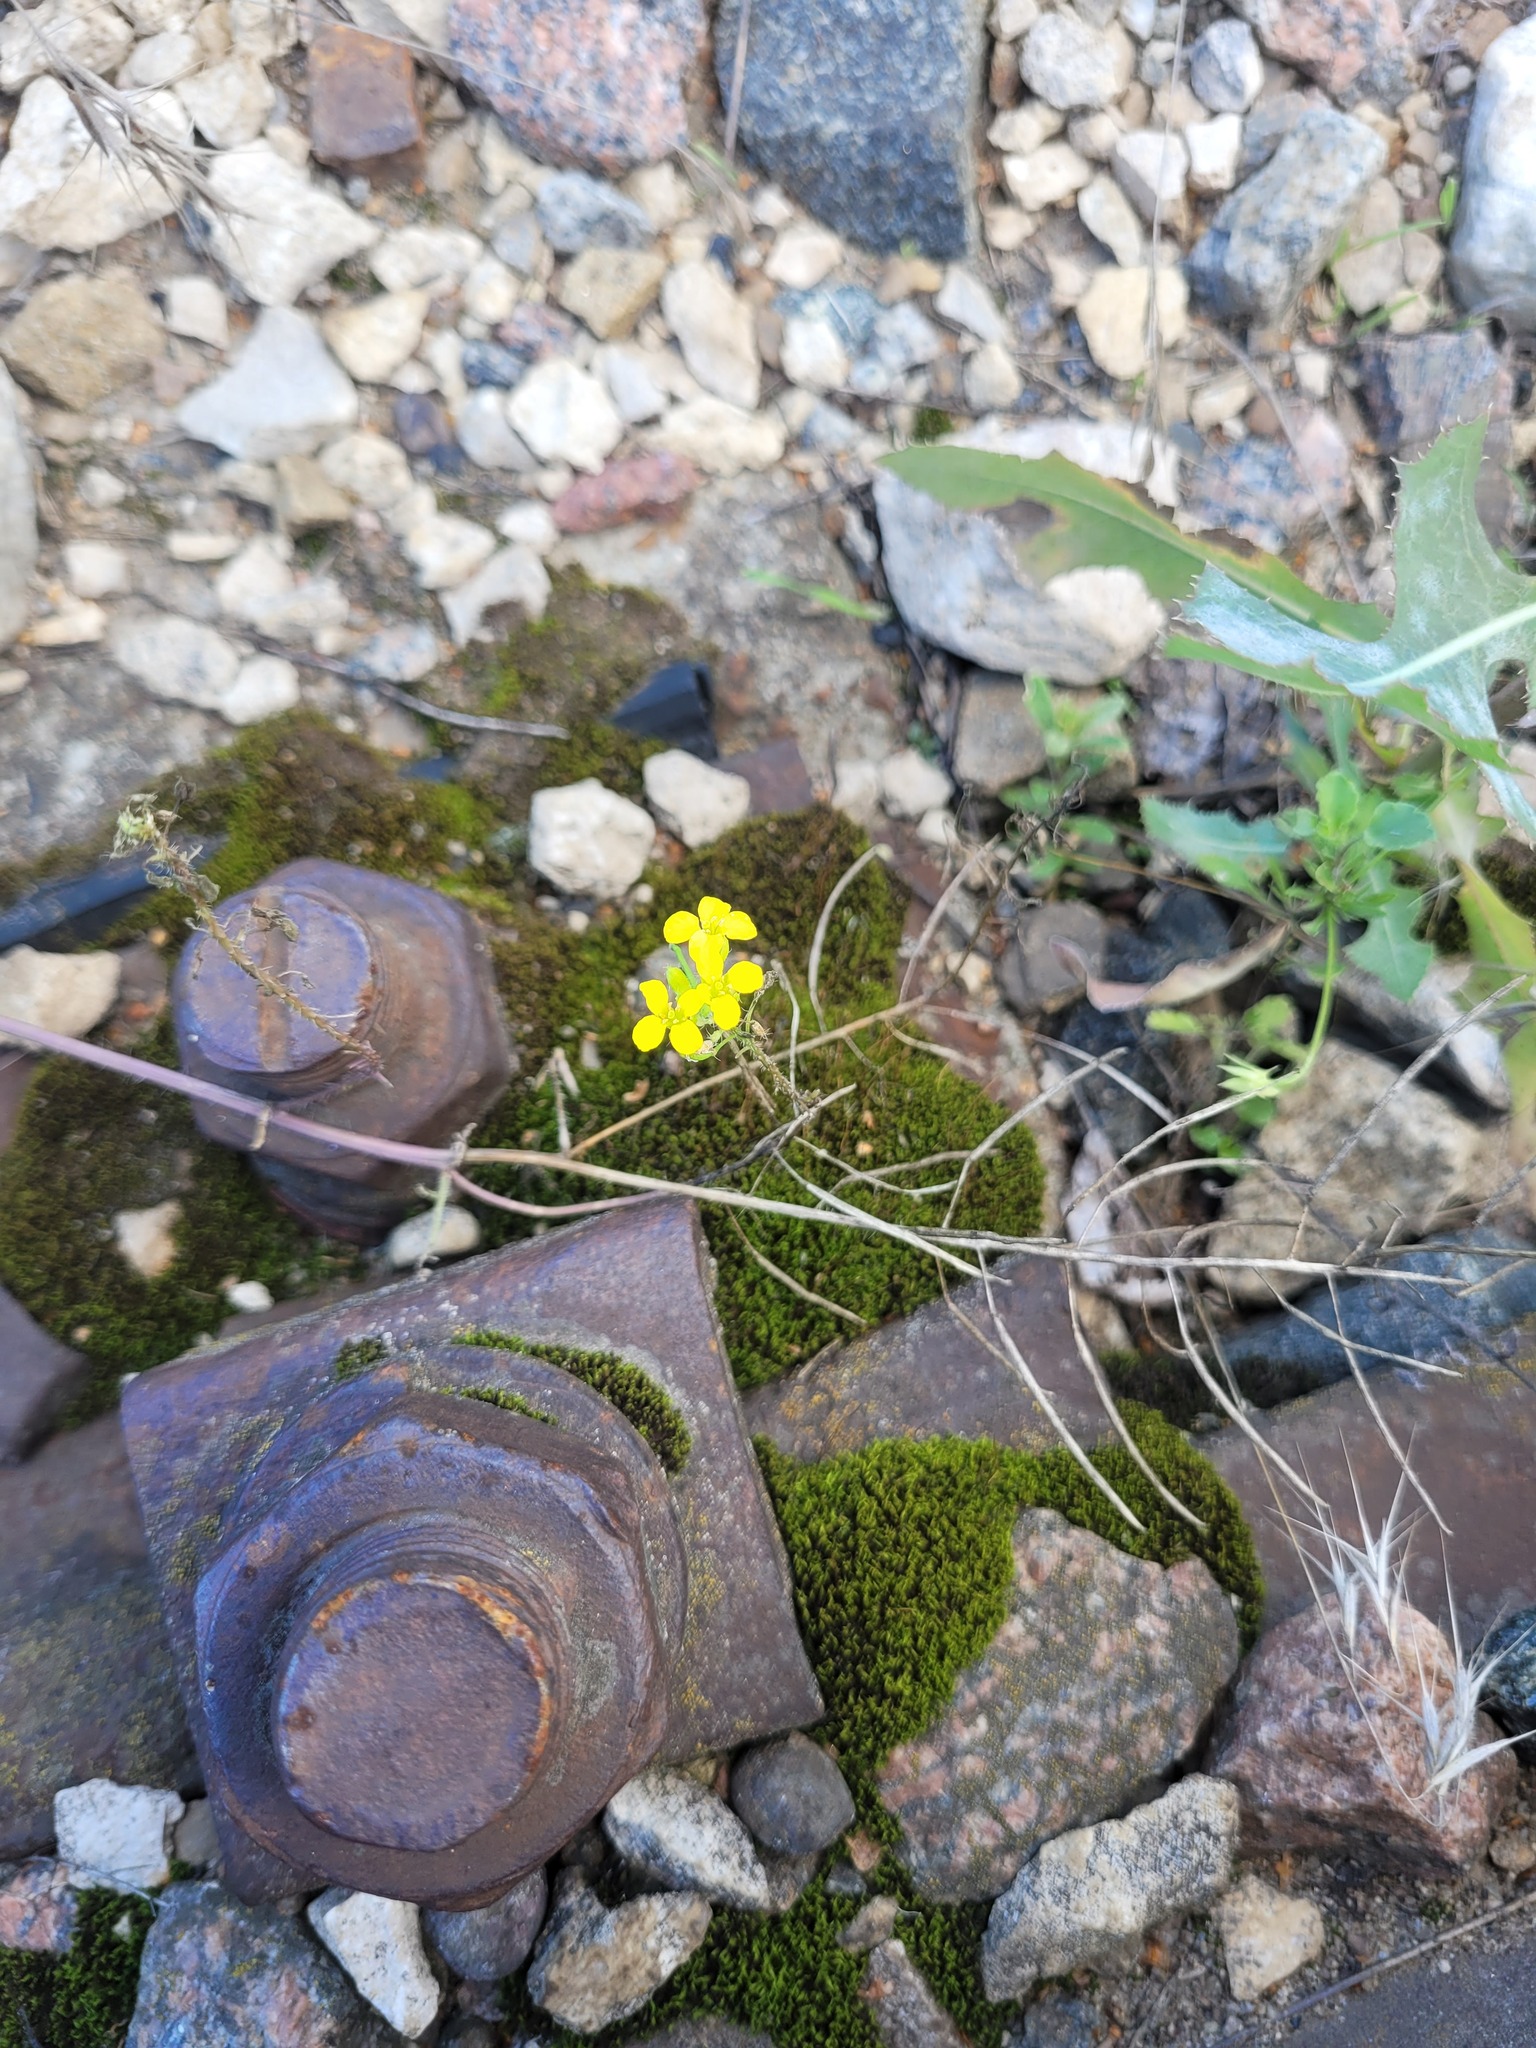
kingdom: Plantae
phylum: Tracheophyta
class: Magnoliopsida
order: Brassicales
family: Brassicaceae
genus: Sisymbrium
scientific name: Sisymbrium loeselii
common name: False london-rocket
